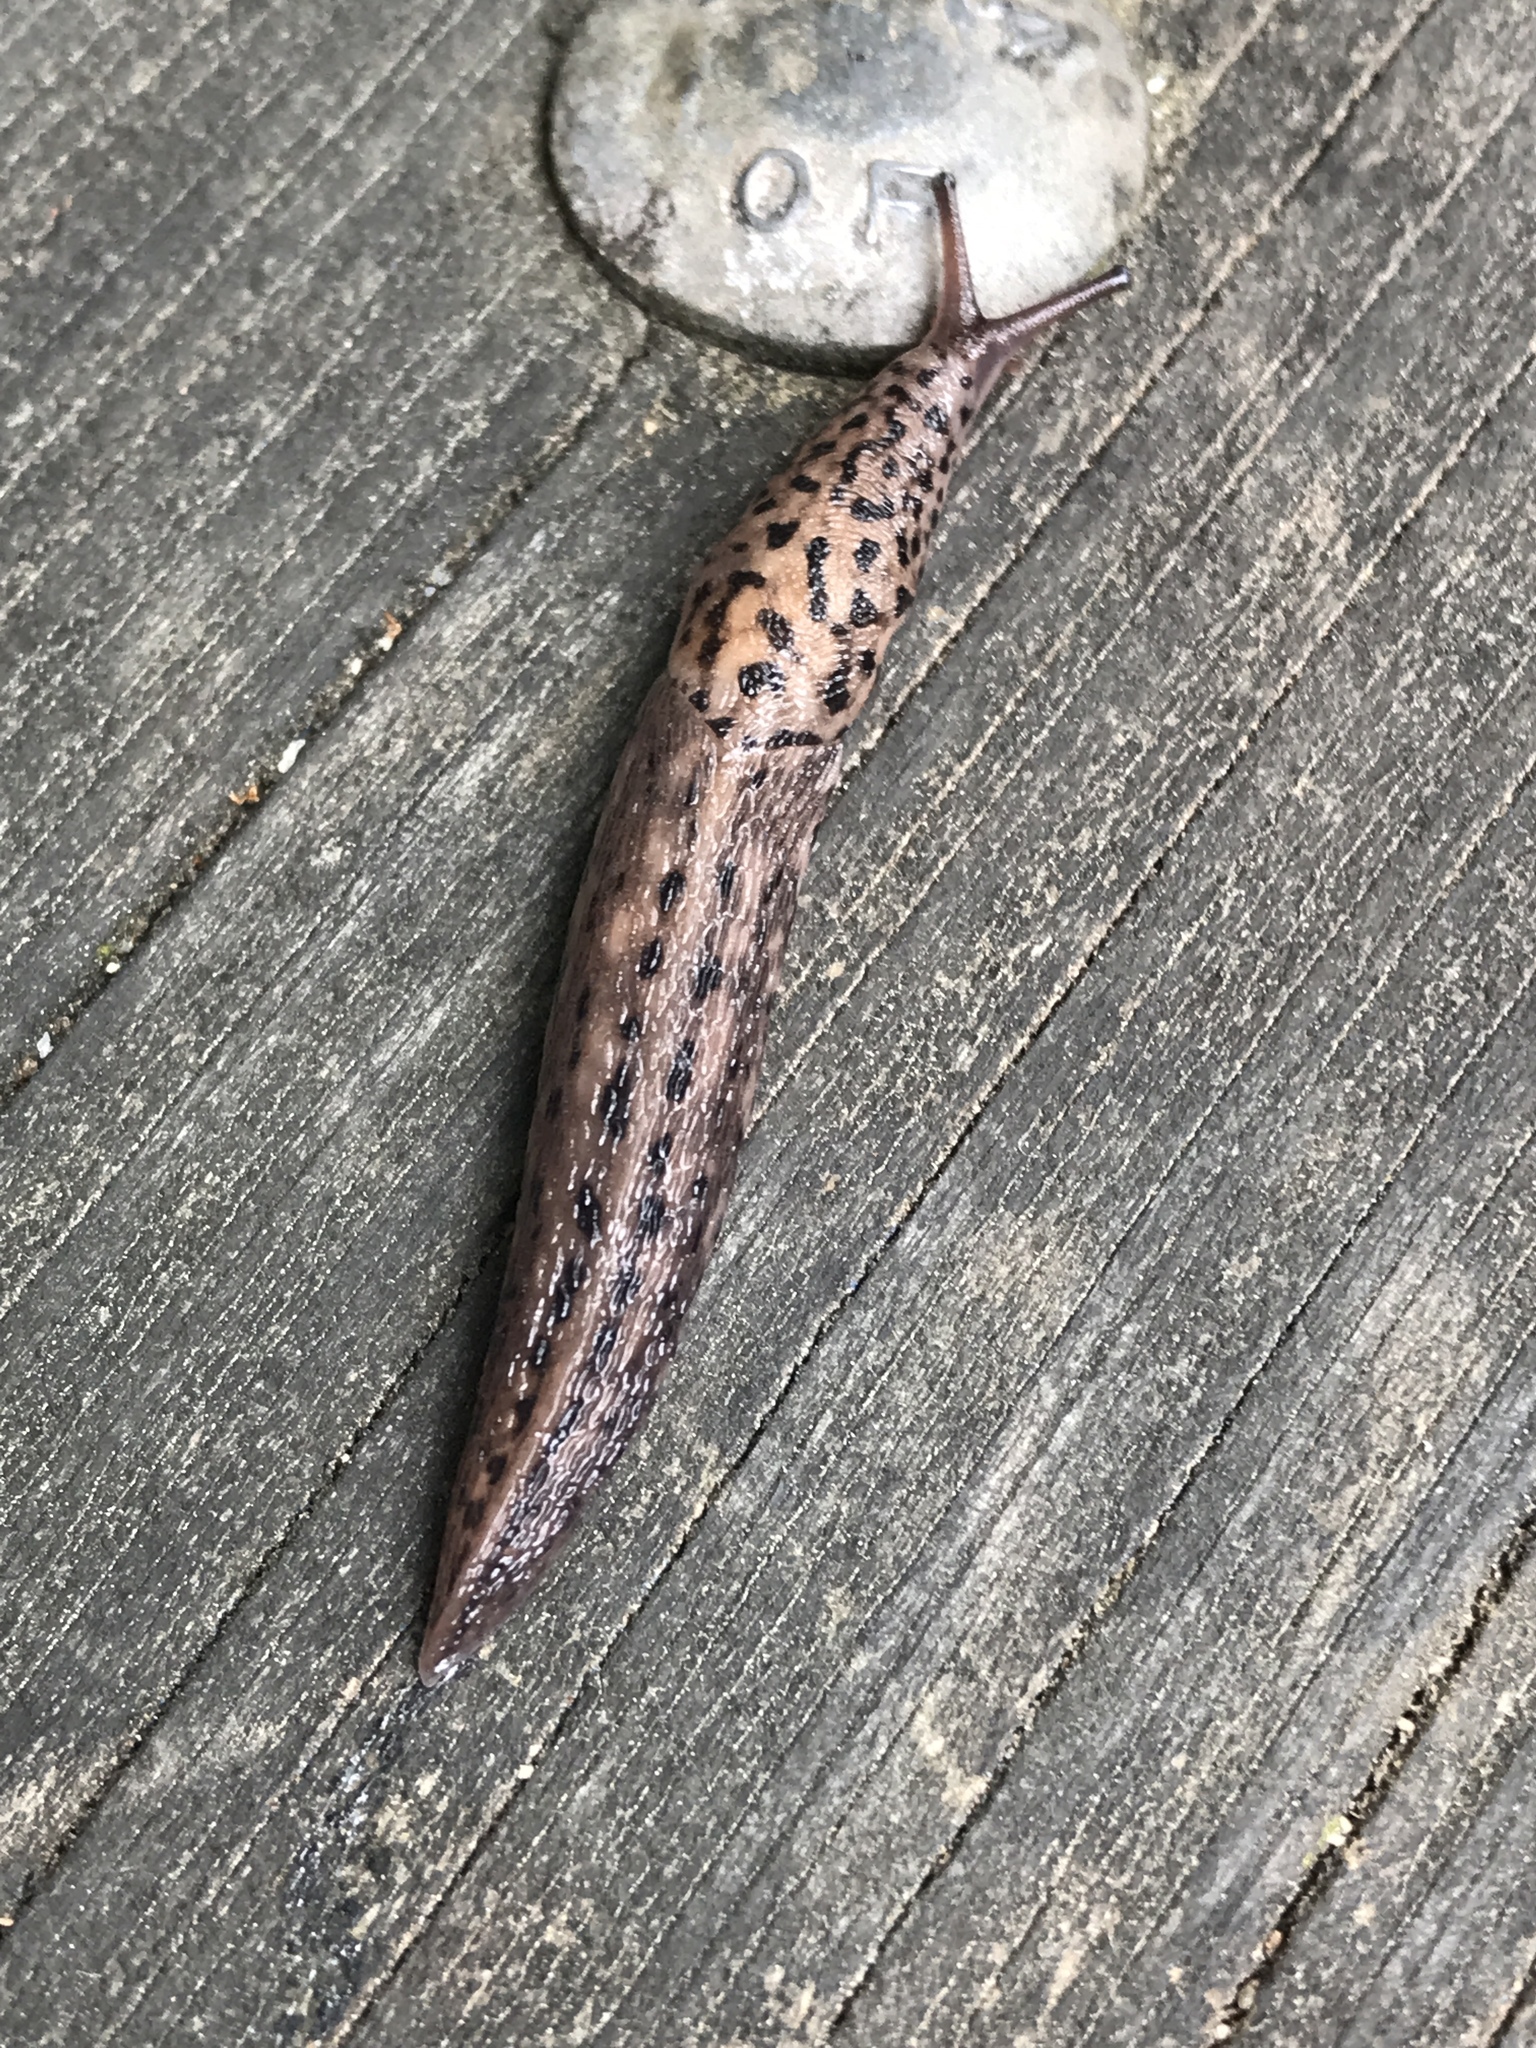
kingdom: Animalia
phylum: Mollusca
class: Gastropoda
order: Stylommatophora
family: Limacidae
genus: Limax
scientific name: Limax maximus
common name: Great grey slug
